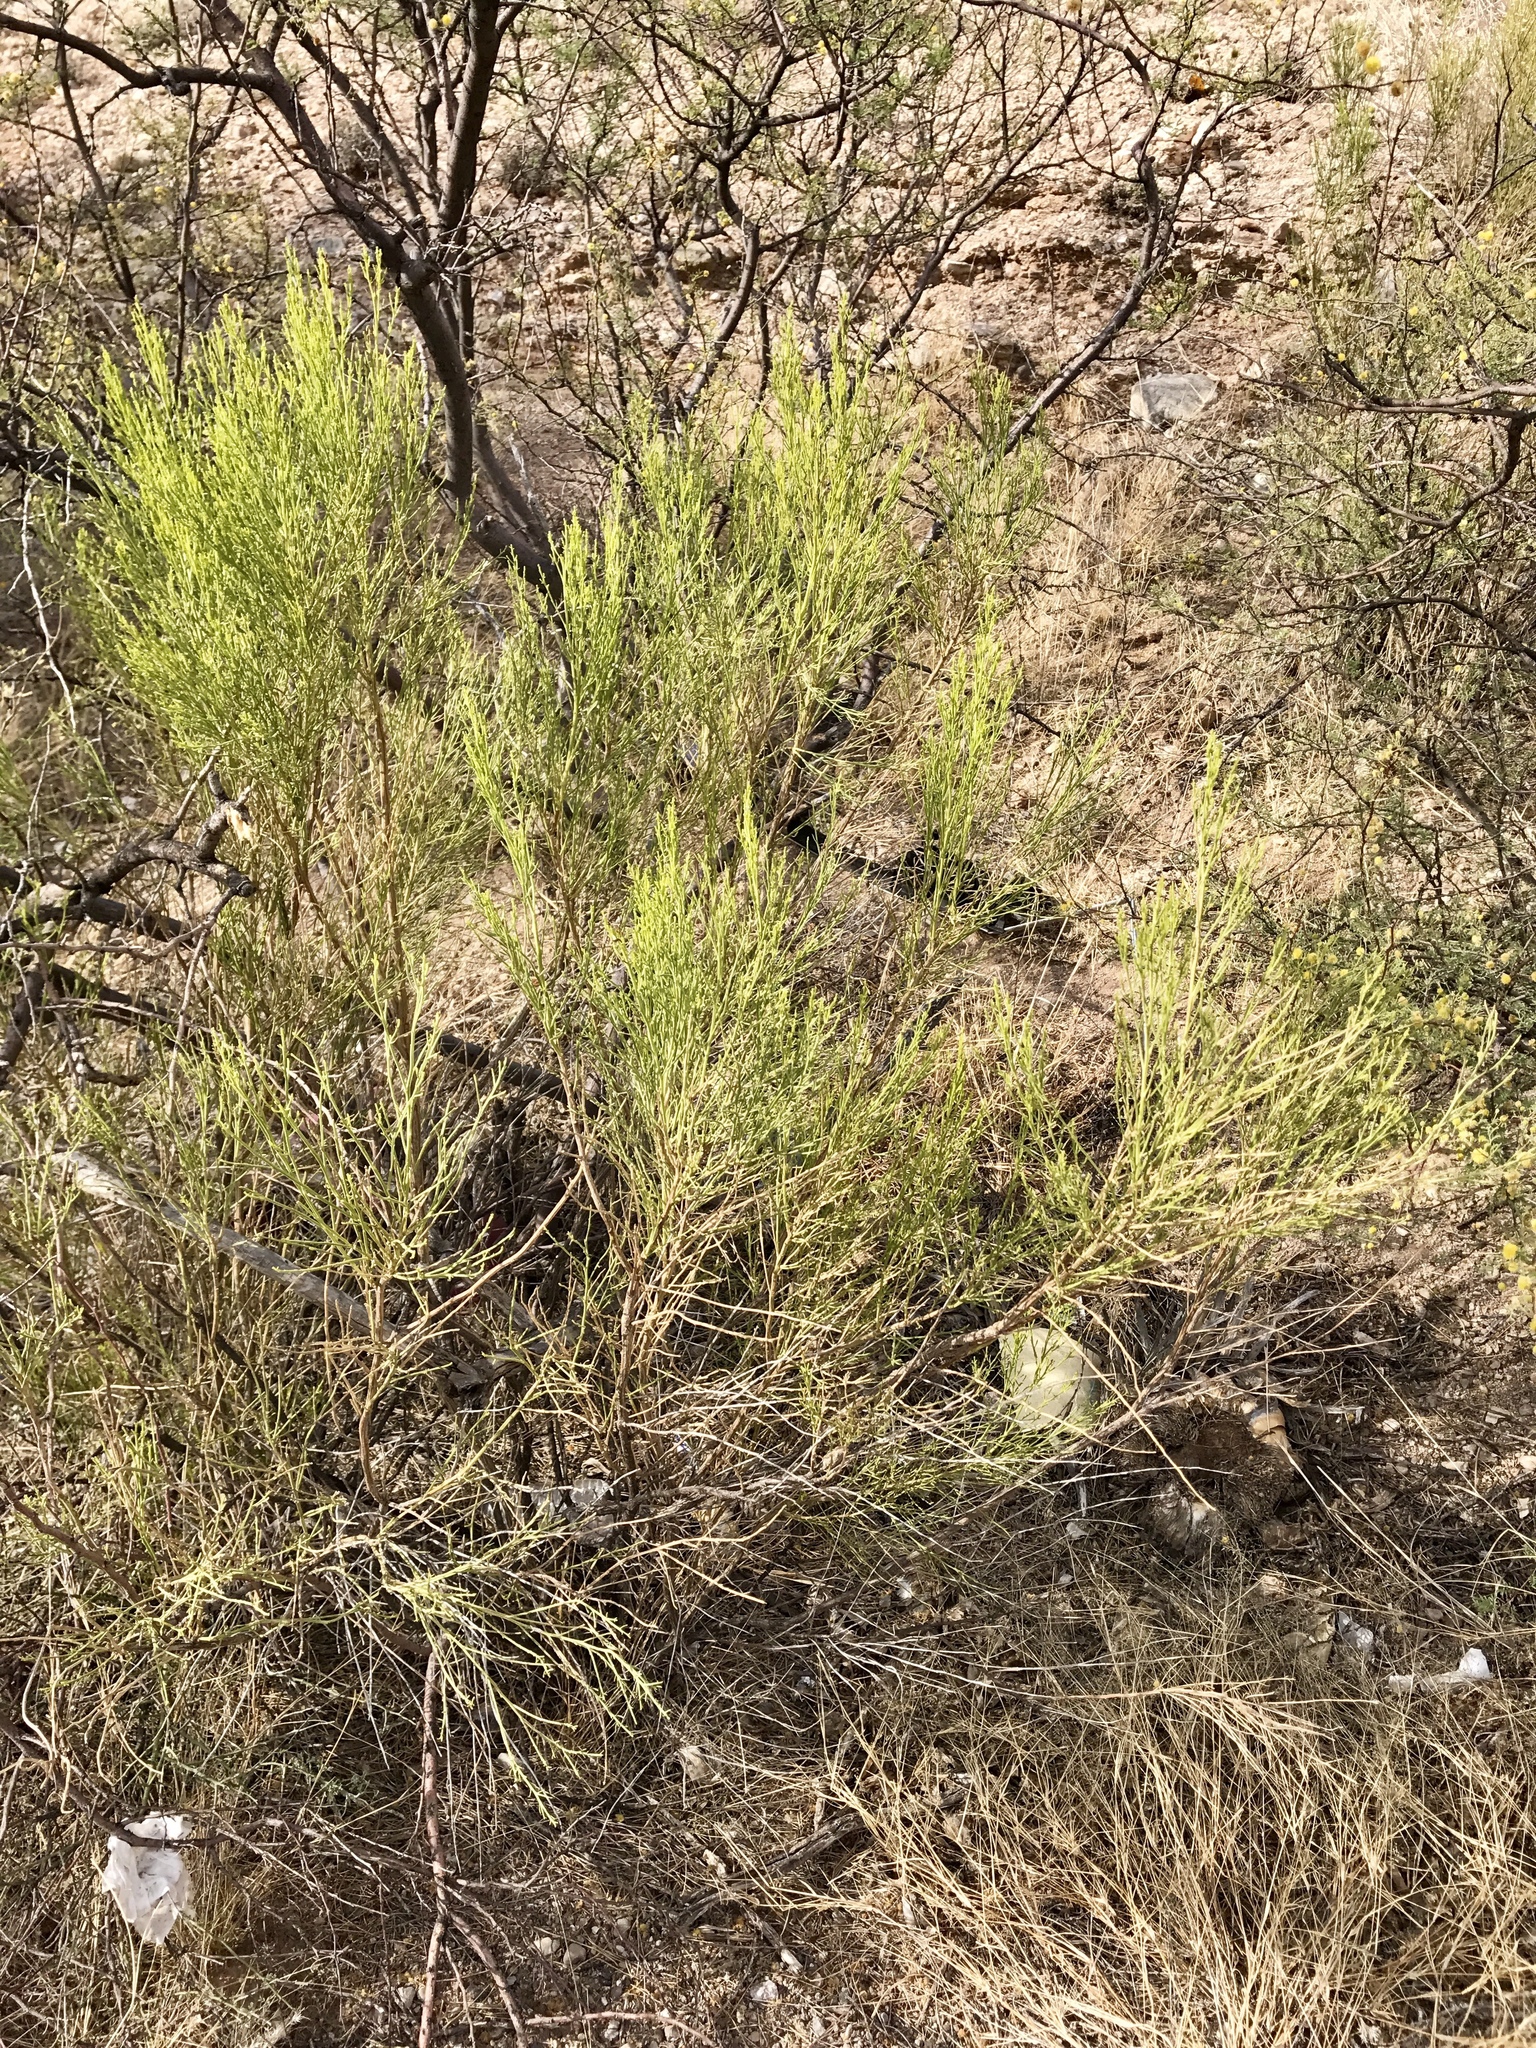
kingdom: Plantae
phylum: Tracheophyta
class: Magnoliopsida
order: Asterales
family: Asteraceae
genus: Baccharis
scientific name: Baccharis sarothroides
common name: Desert-broom
